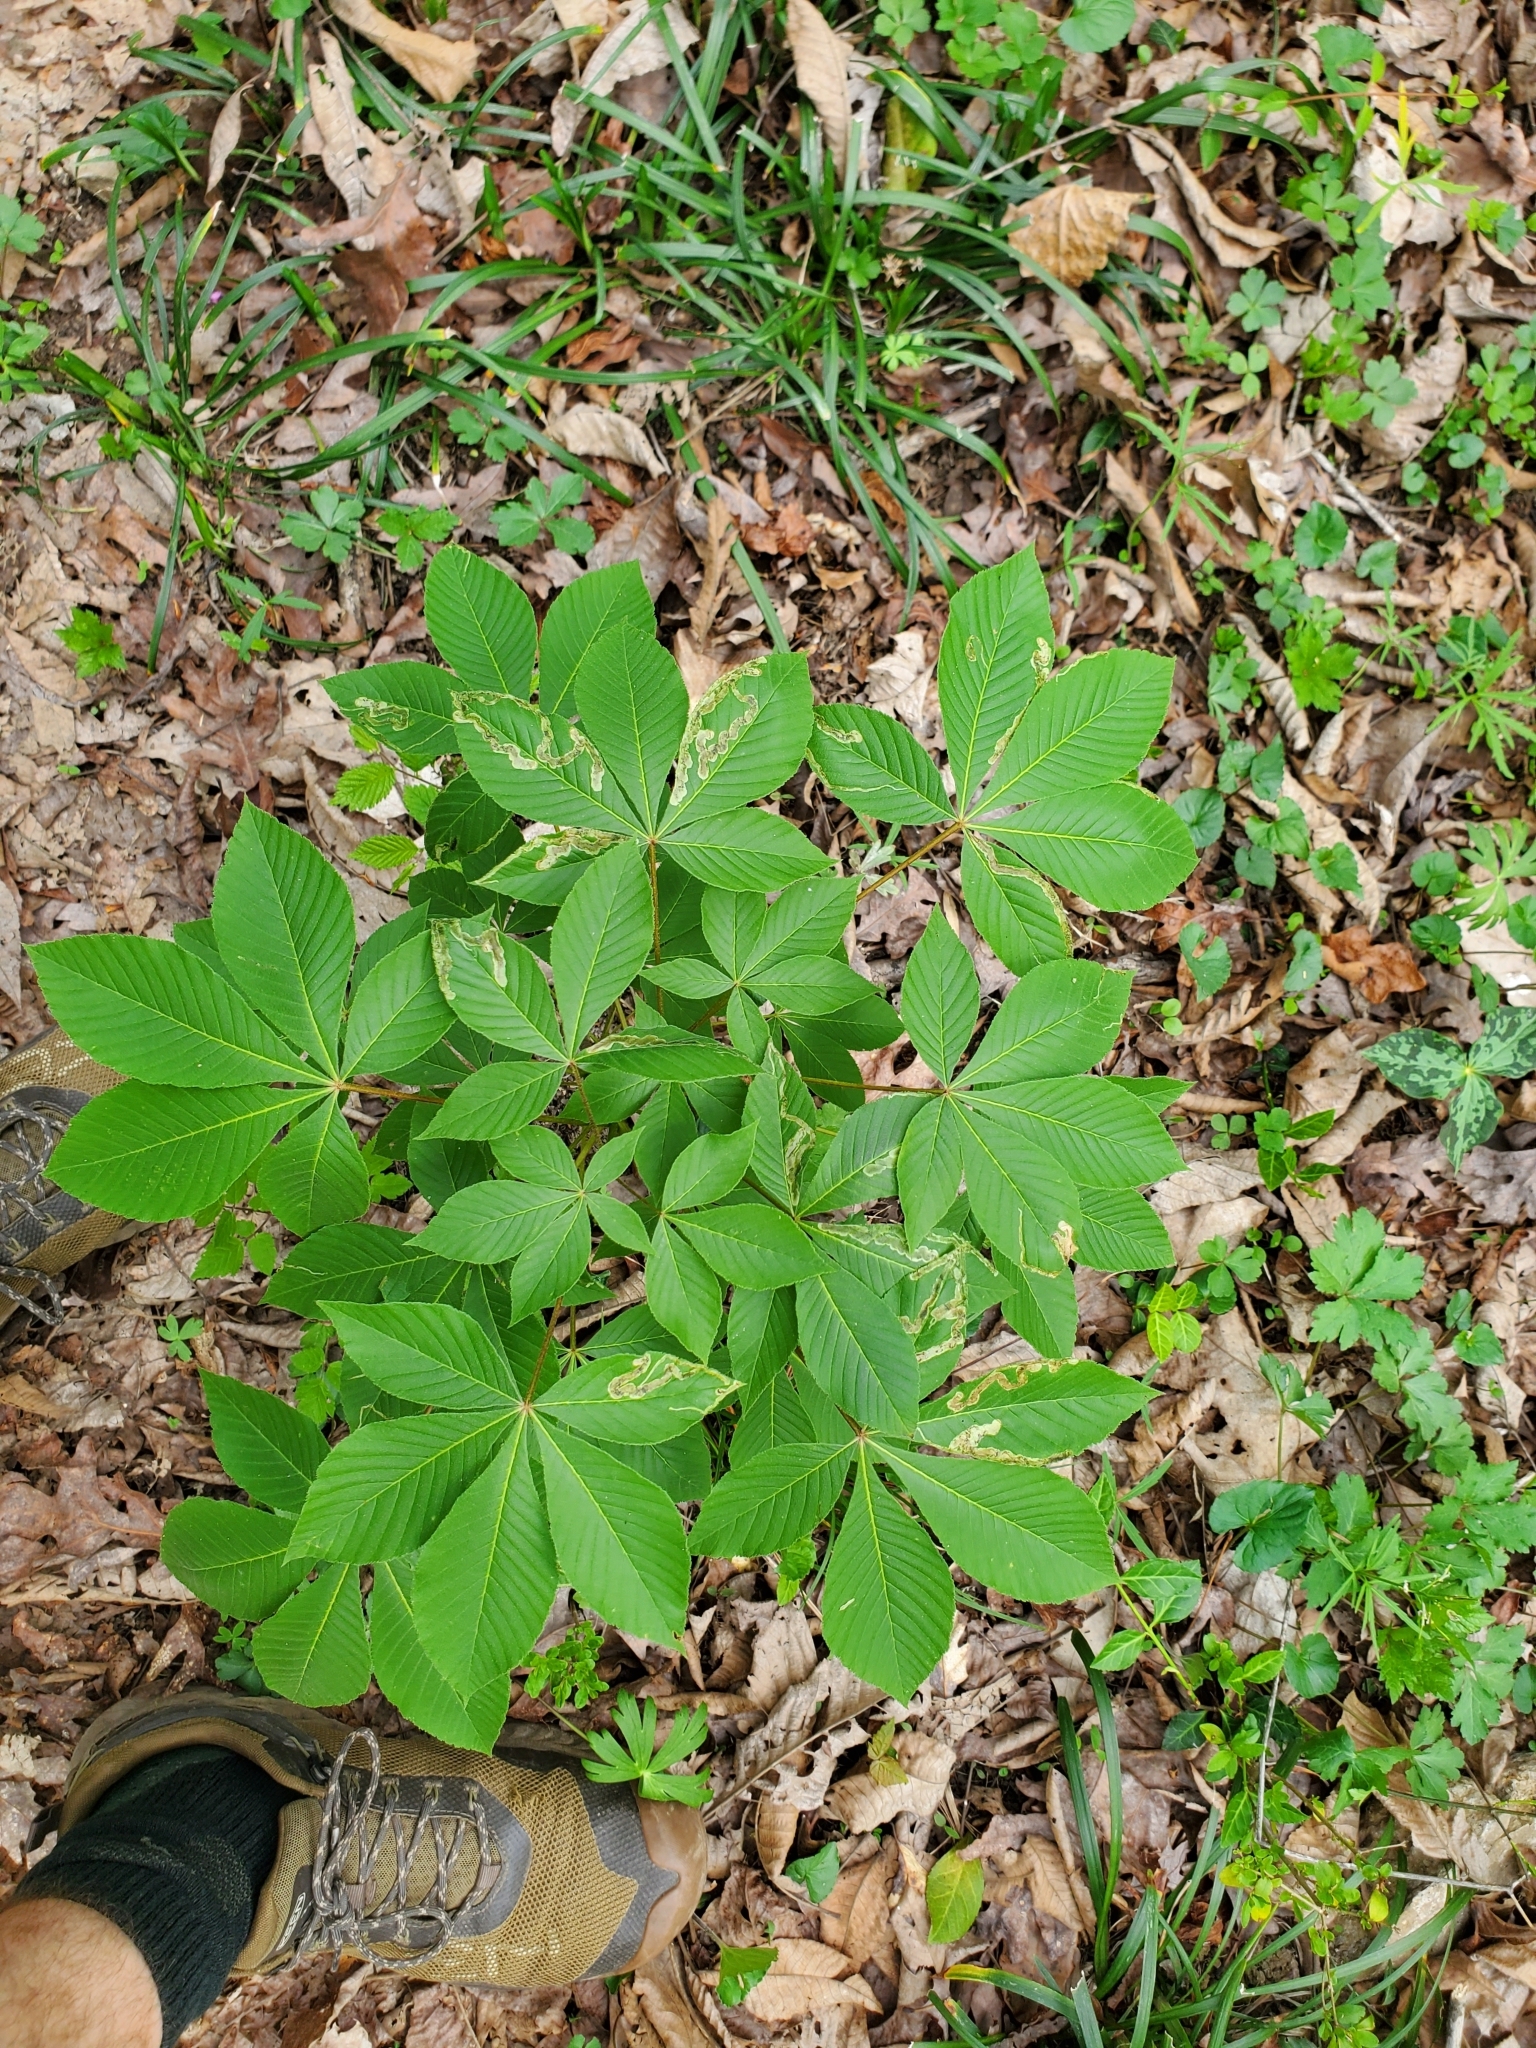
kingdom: Animalia
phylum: Arthropoda
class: Insecta
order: Diptera
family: Agromyzidae
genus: Phytomyza
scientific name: Phytomyza aesculi
